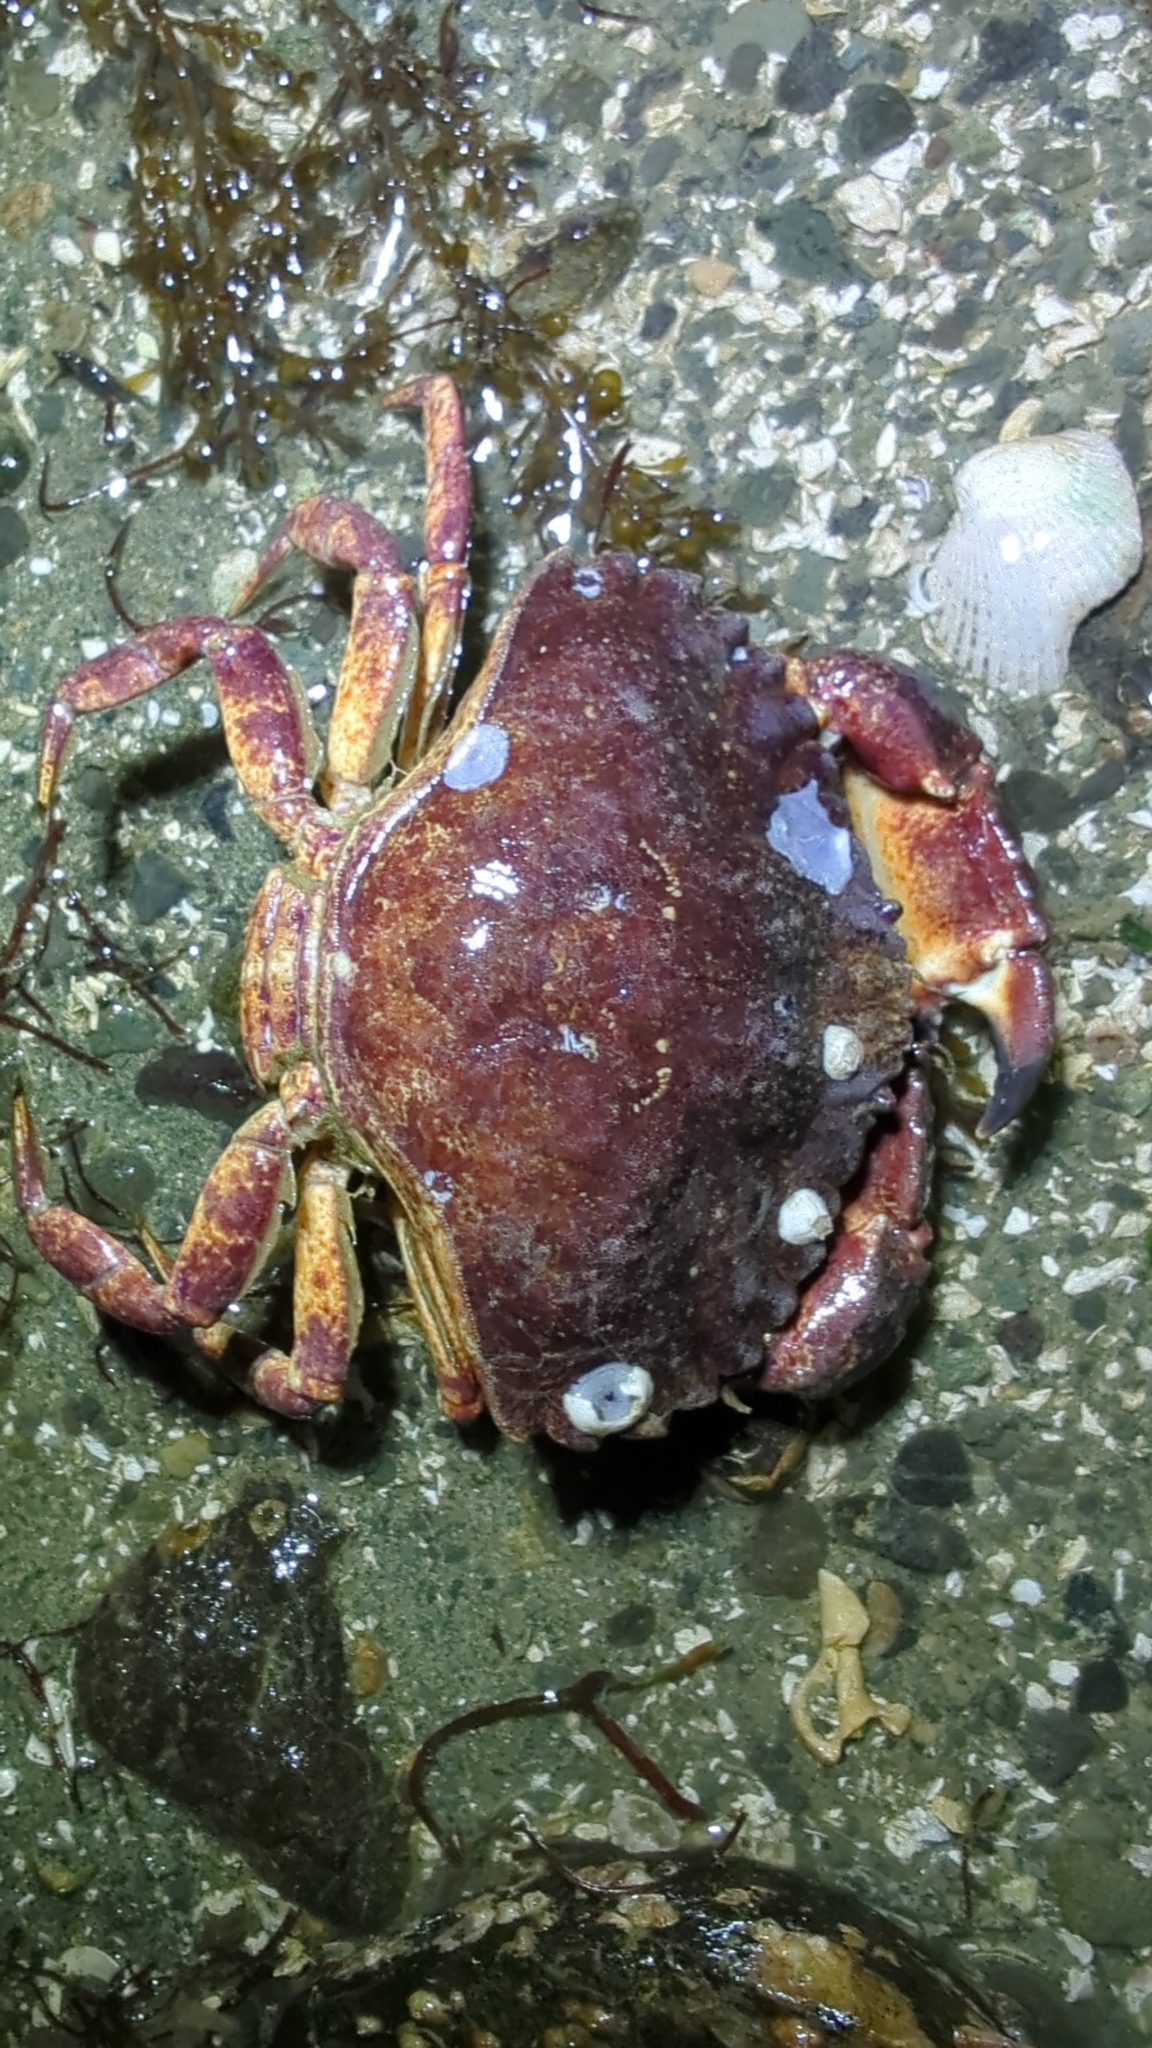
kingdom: Animalia
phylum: Arthropoda
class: Malacostraca
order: Decapoda
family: Cancridae
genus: Cancer
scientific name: Cancer productus
